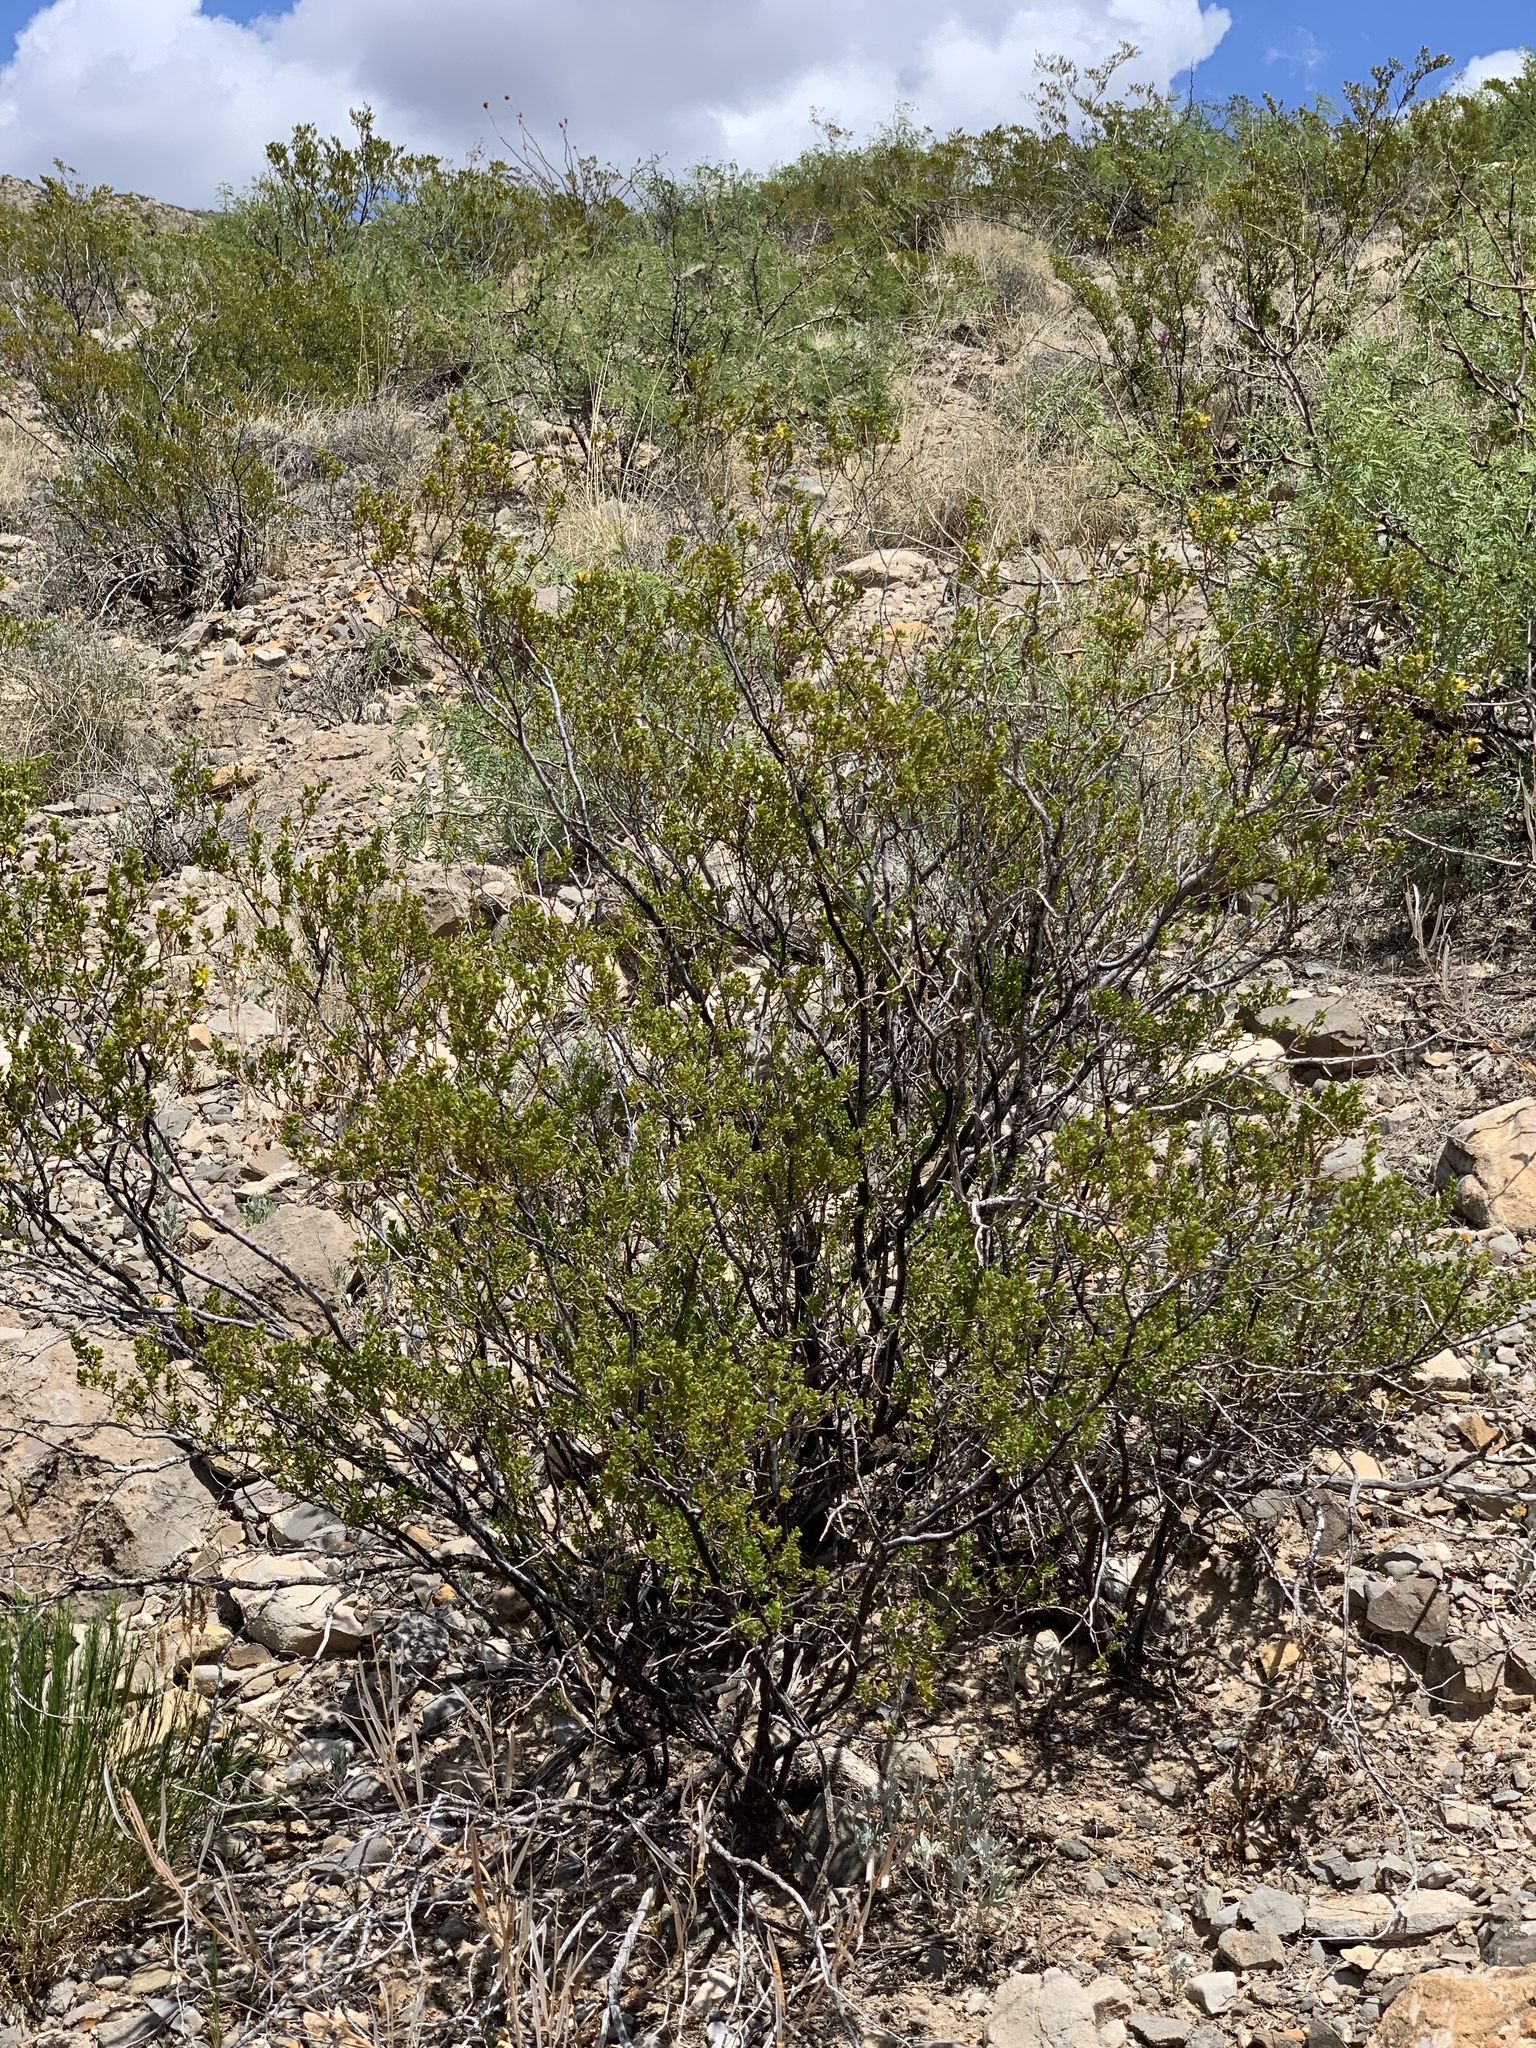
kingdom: Plantae
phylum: Tracheophyta
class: Magnoliopsida
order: Zygophyllales
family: Zygophyllaceae
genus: Larrea
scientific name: Larrea tridentata
